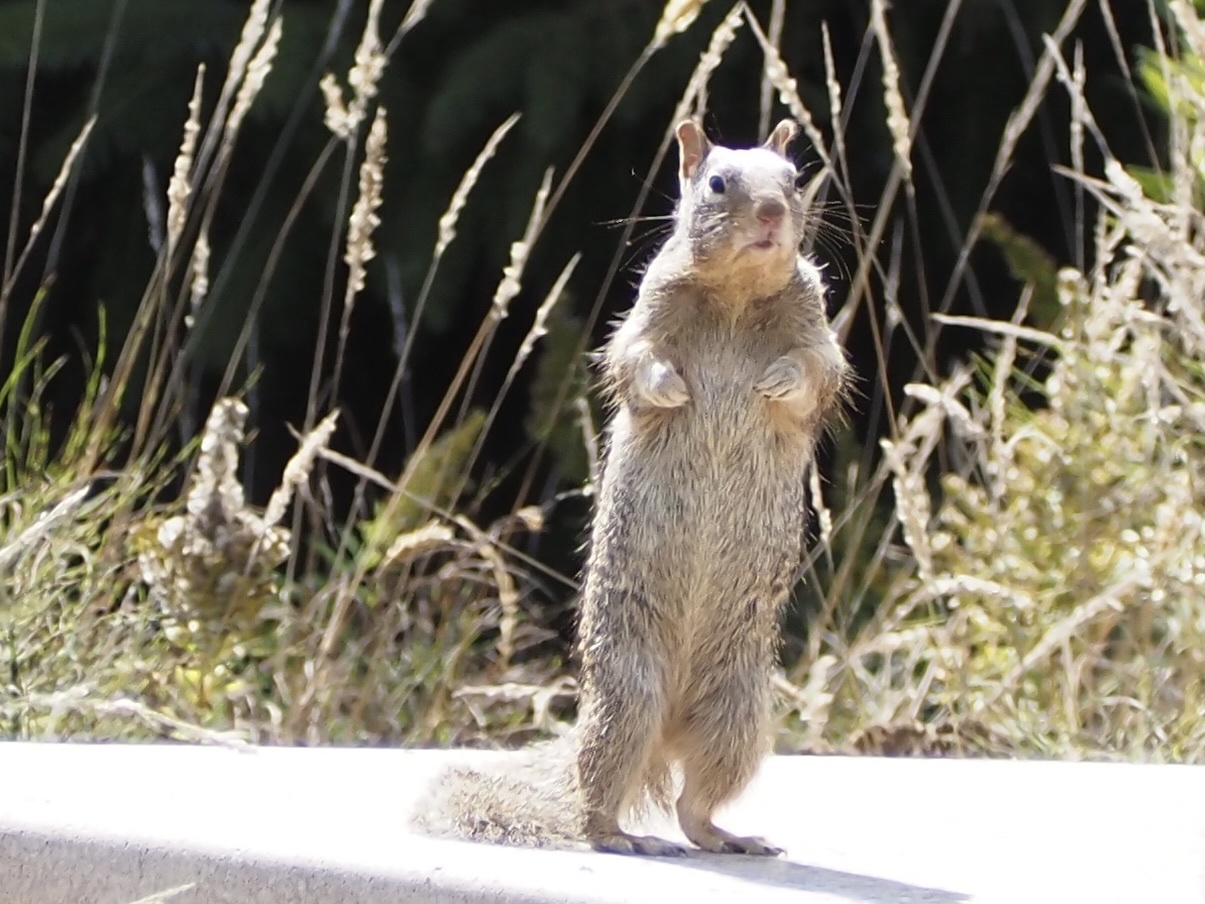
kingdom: Animalia
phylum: Chordata
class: Mammalia
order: Rodentia
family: Sciuridae
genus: Otospermophilus
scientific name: Otospermophilus beecheyi
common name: California ground squirrel
